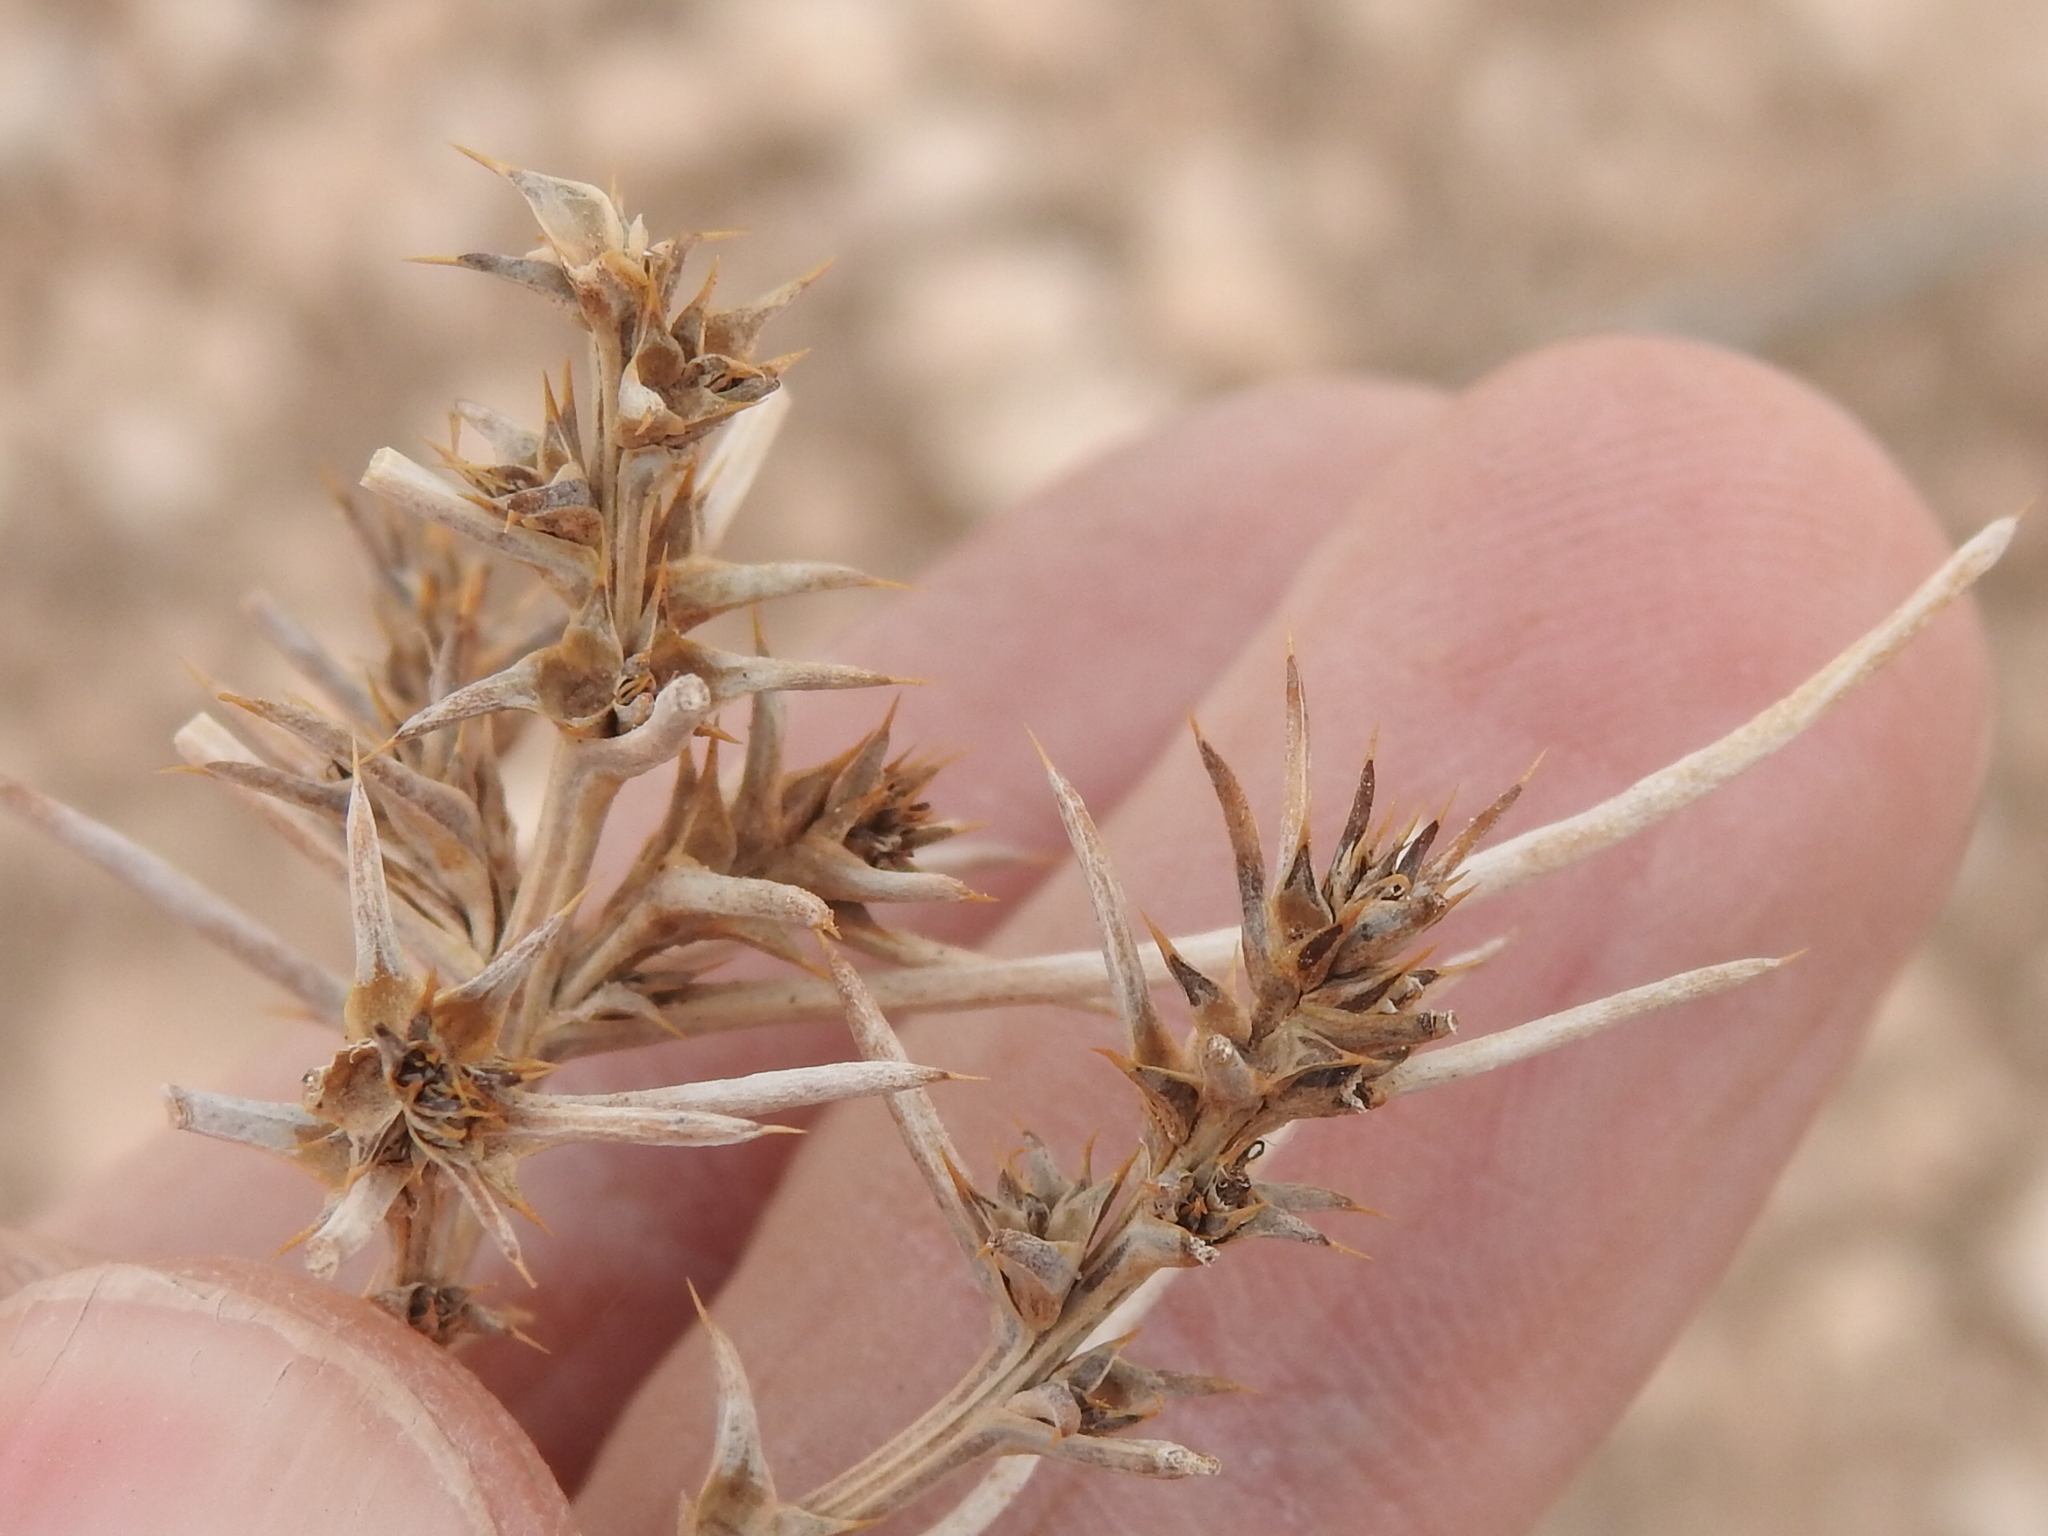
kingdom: Plantae
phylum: Tracheophyta
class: Magnoliopsida
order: Caryophyllales
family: Amaranthaceae
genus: Salsola
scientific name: Salsola tragus
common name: Prickly russian thistle
